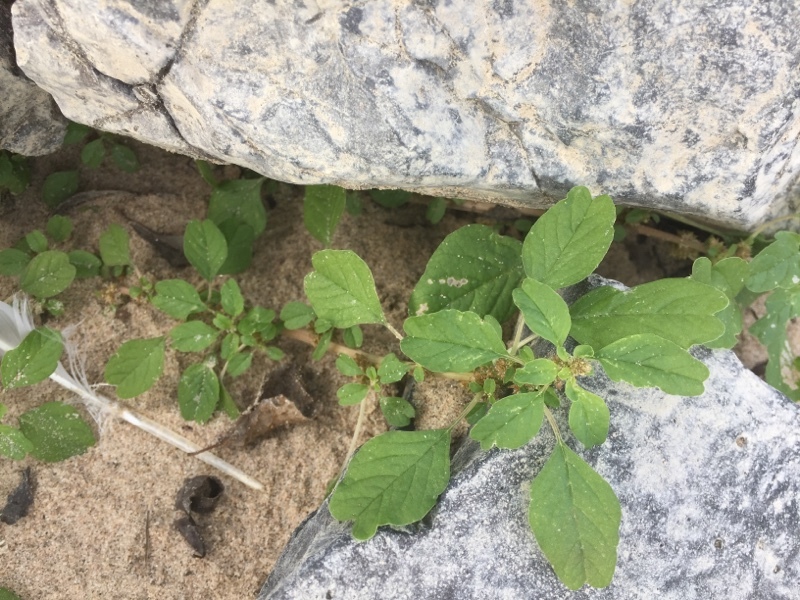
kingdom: Plantae
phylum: Tracheophyta
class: Magnoliopsida
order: Caryophyllales
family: Amaranthaceae
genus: Amaranthus
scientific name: Amaranthus blitum
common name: Purple amaranth
